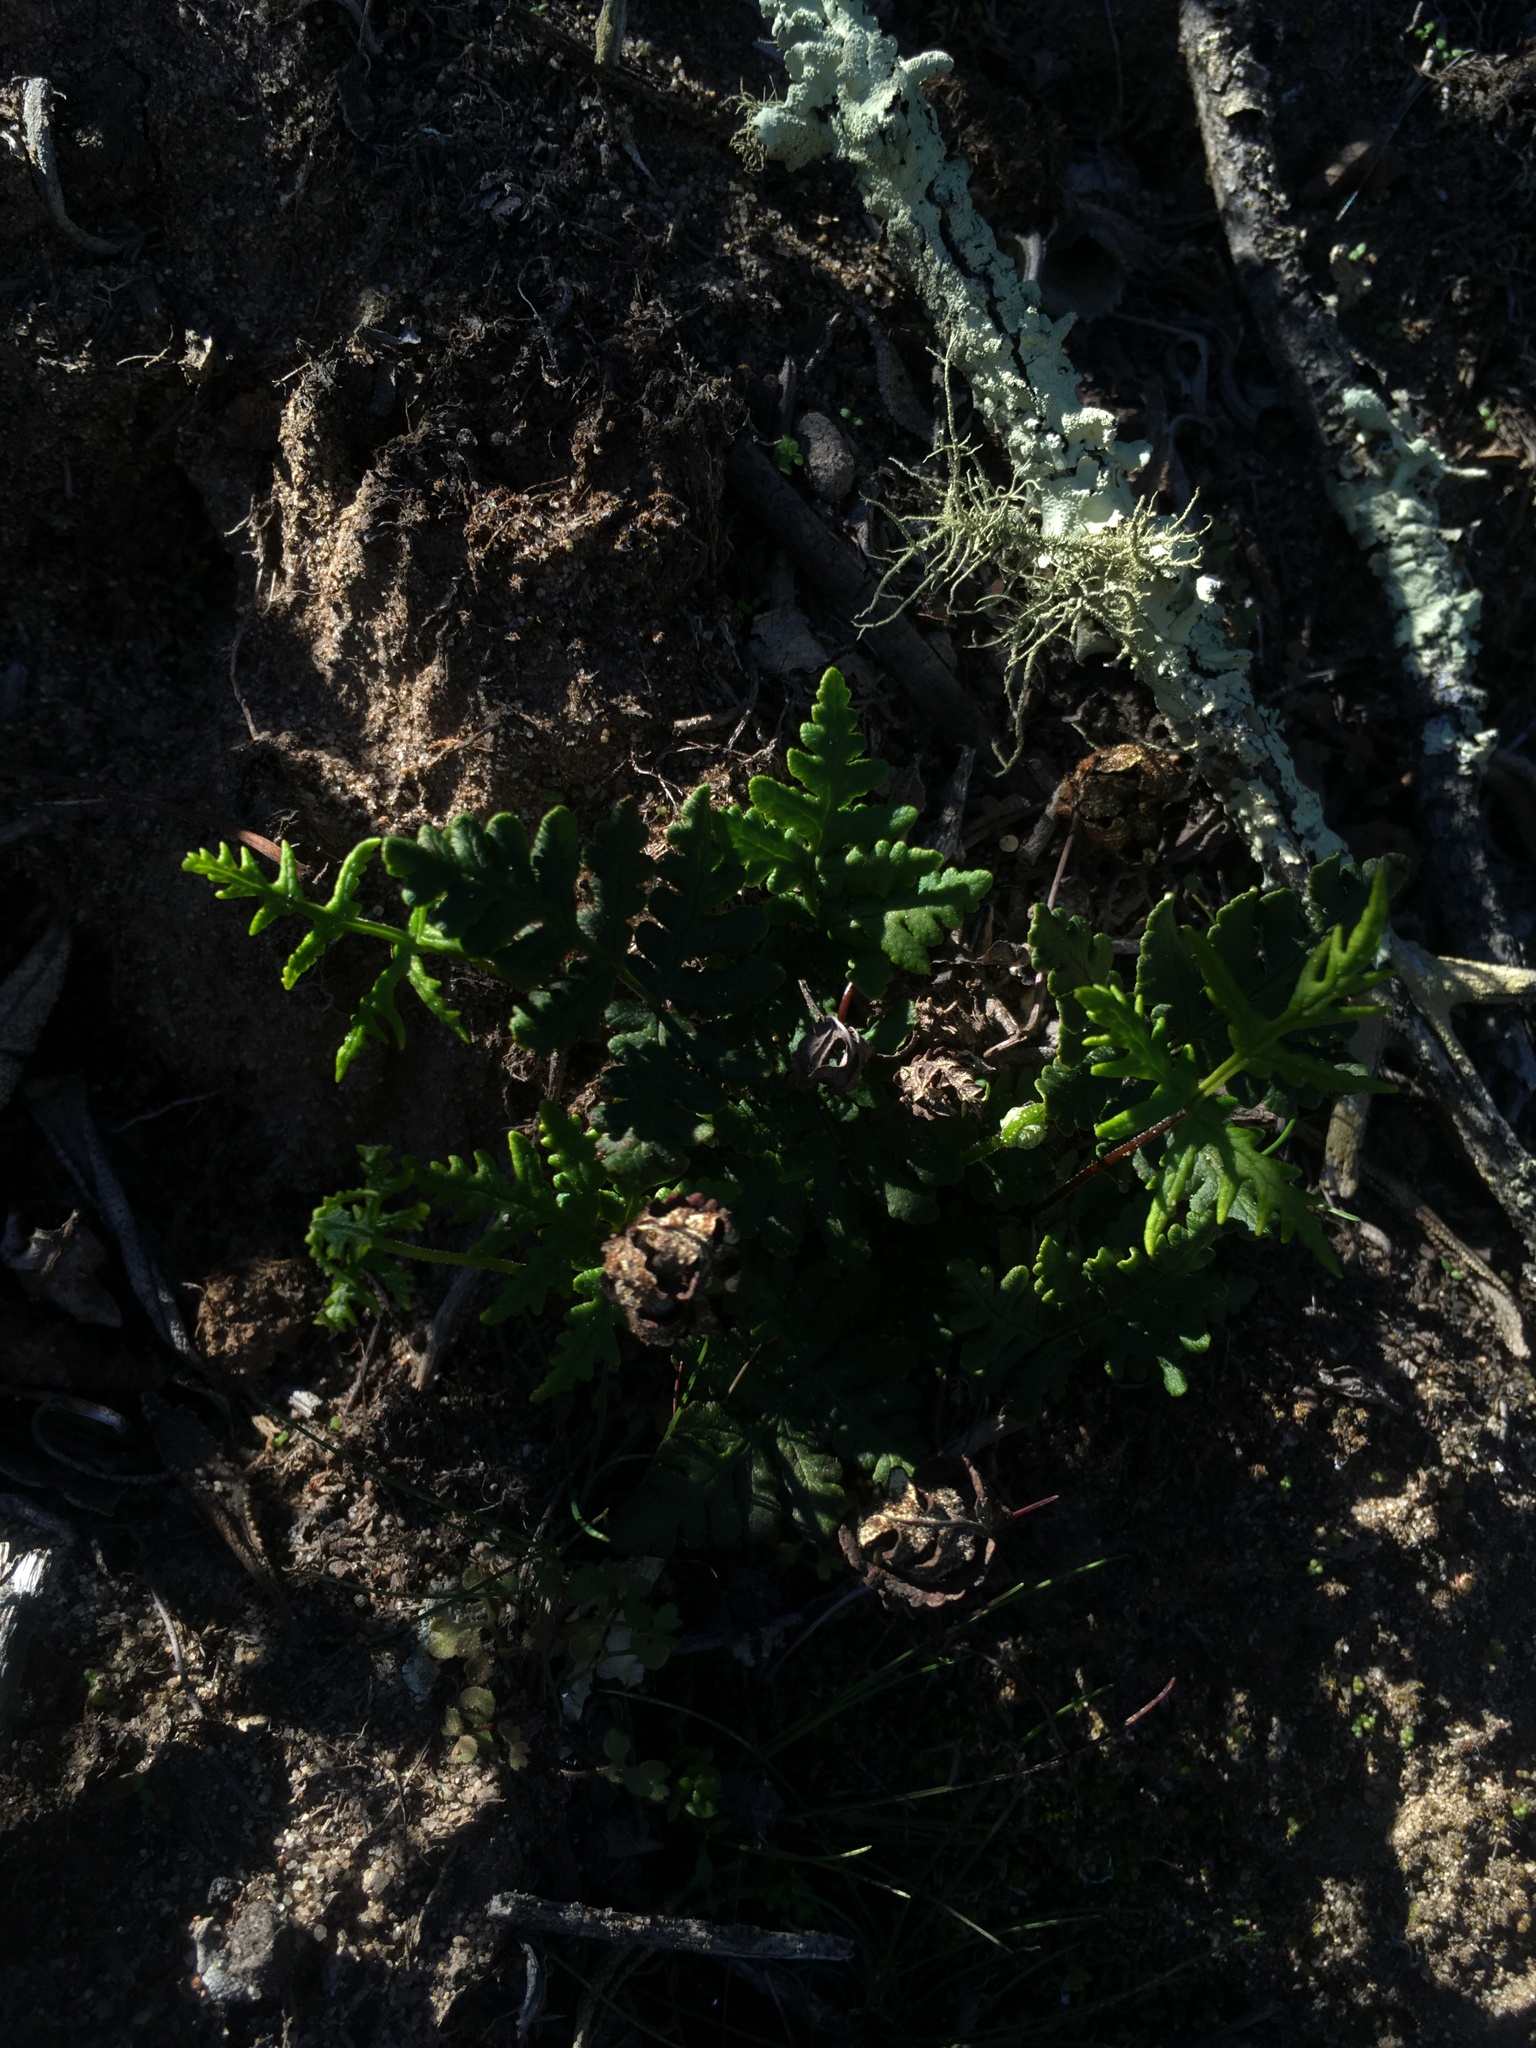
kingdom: Plantae
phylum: Tracheophyta
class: Polypodiopsida
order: Polypodiales
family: Pteridaceae
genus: Pentagramma
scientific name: Pentagramma triangularis
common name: Gold fern
